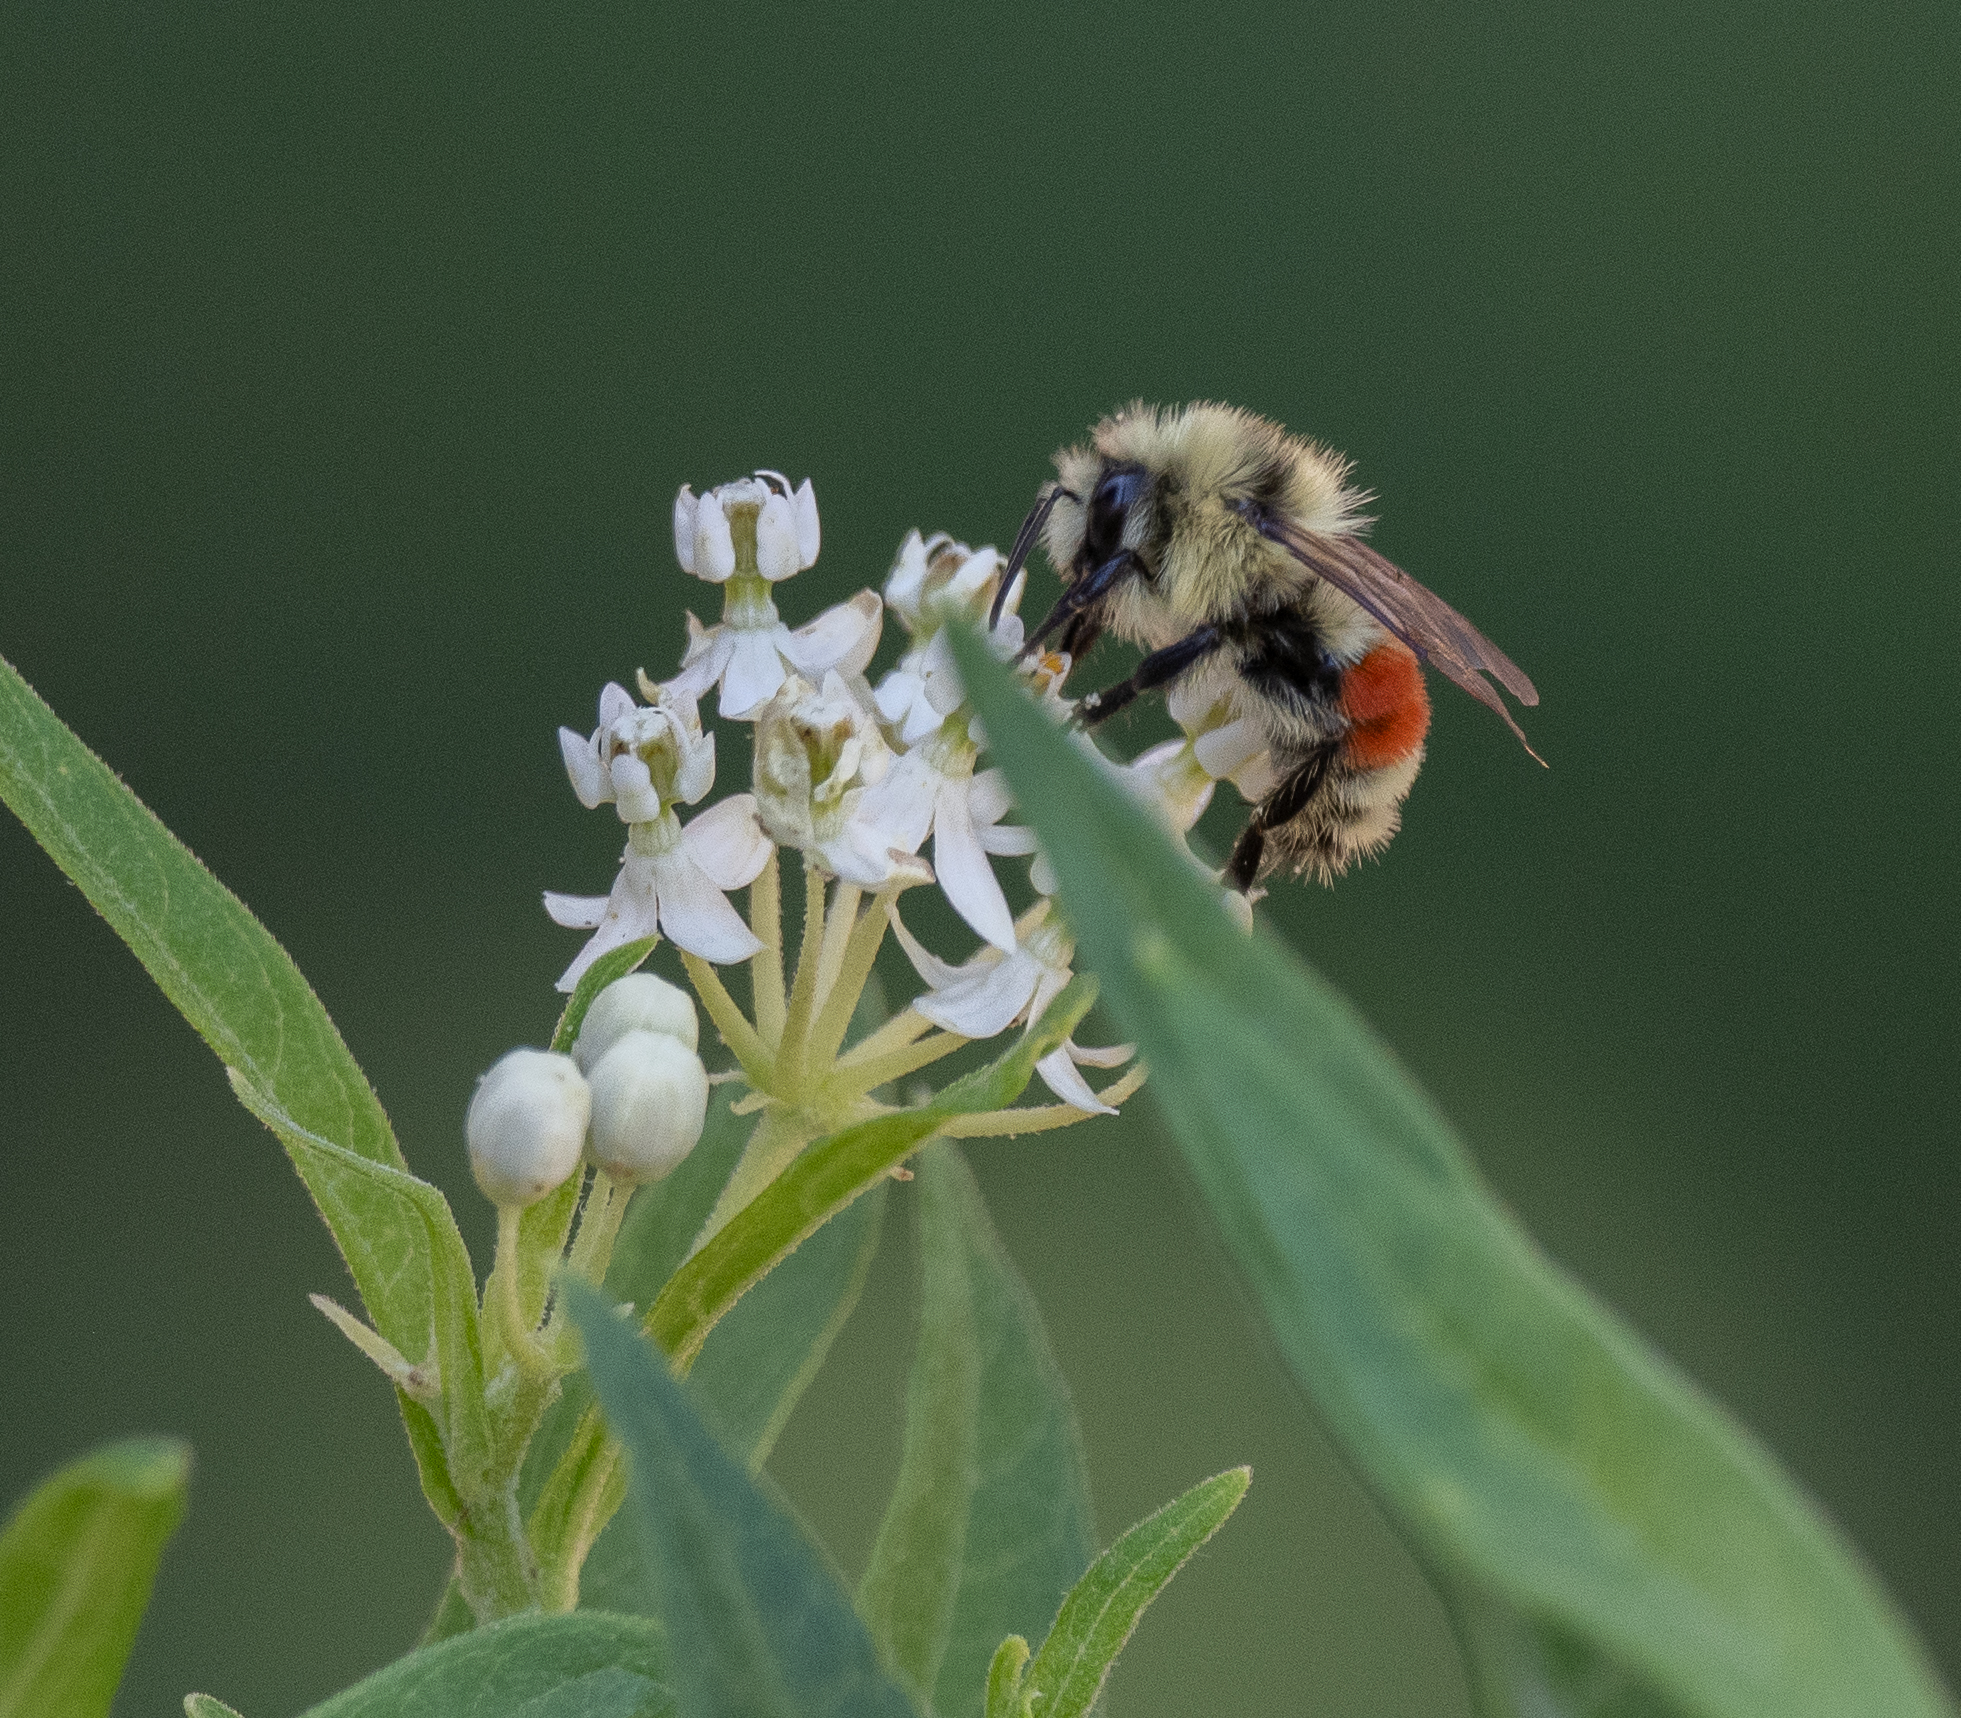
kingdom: Animalia
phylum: Arthropoda
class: Insecta
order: Hymenoptera
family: Apidae
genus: Bombus
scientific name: Bombus huntii
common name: Hunt bumble bee
